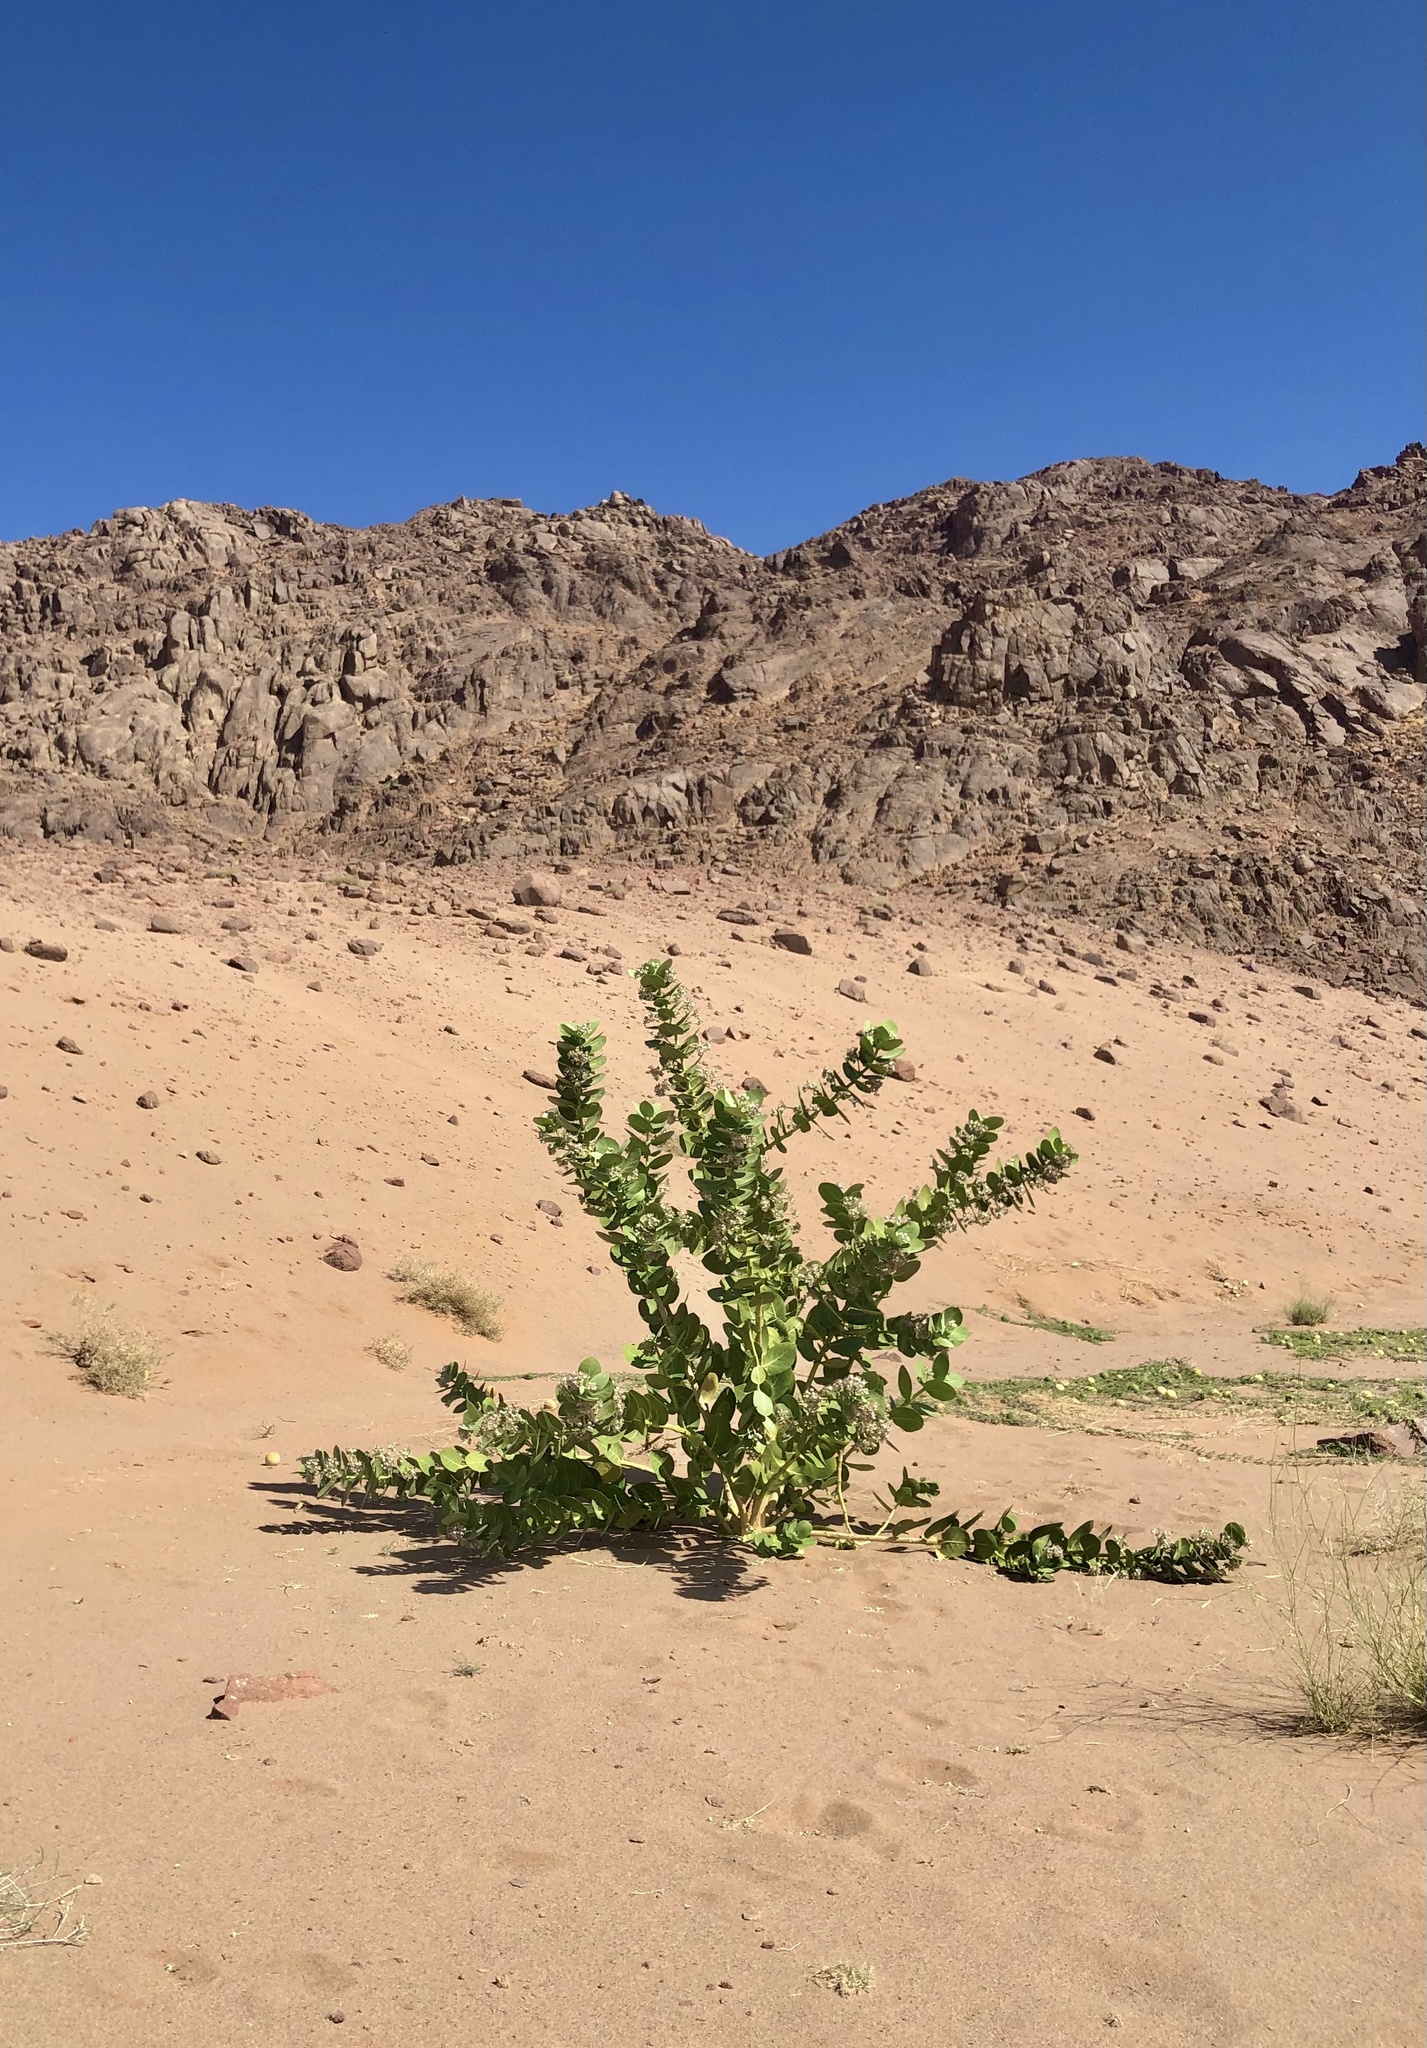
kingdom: Plantae
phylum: Tracheophyta
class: Magnoliopsida
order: Gentianales
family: Apocynaceae
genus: Calotropis
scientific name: Calotropis procera
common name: Roostertree
